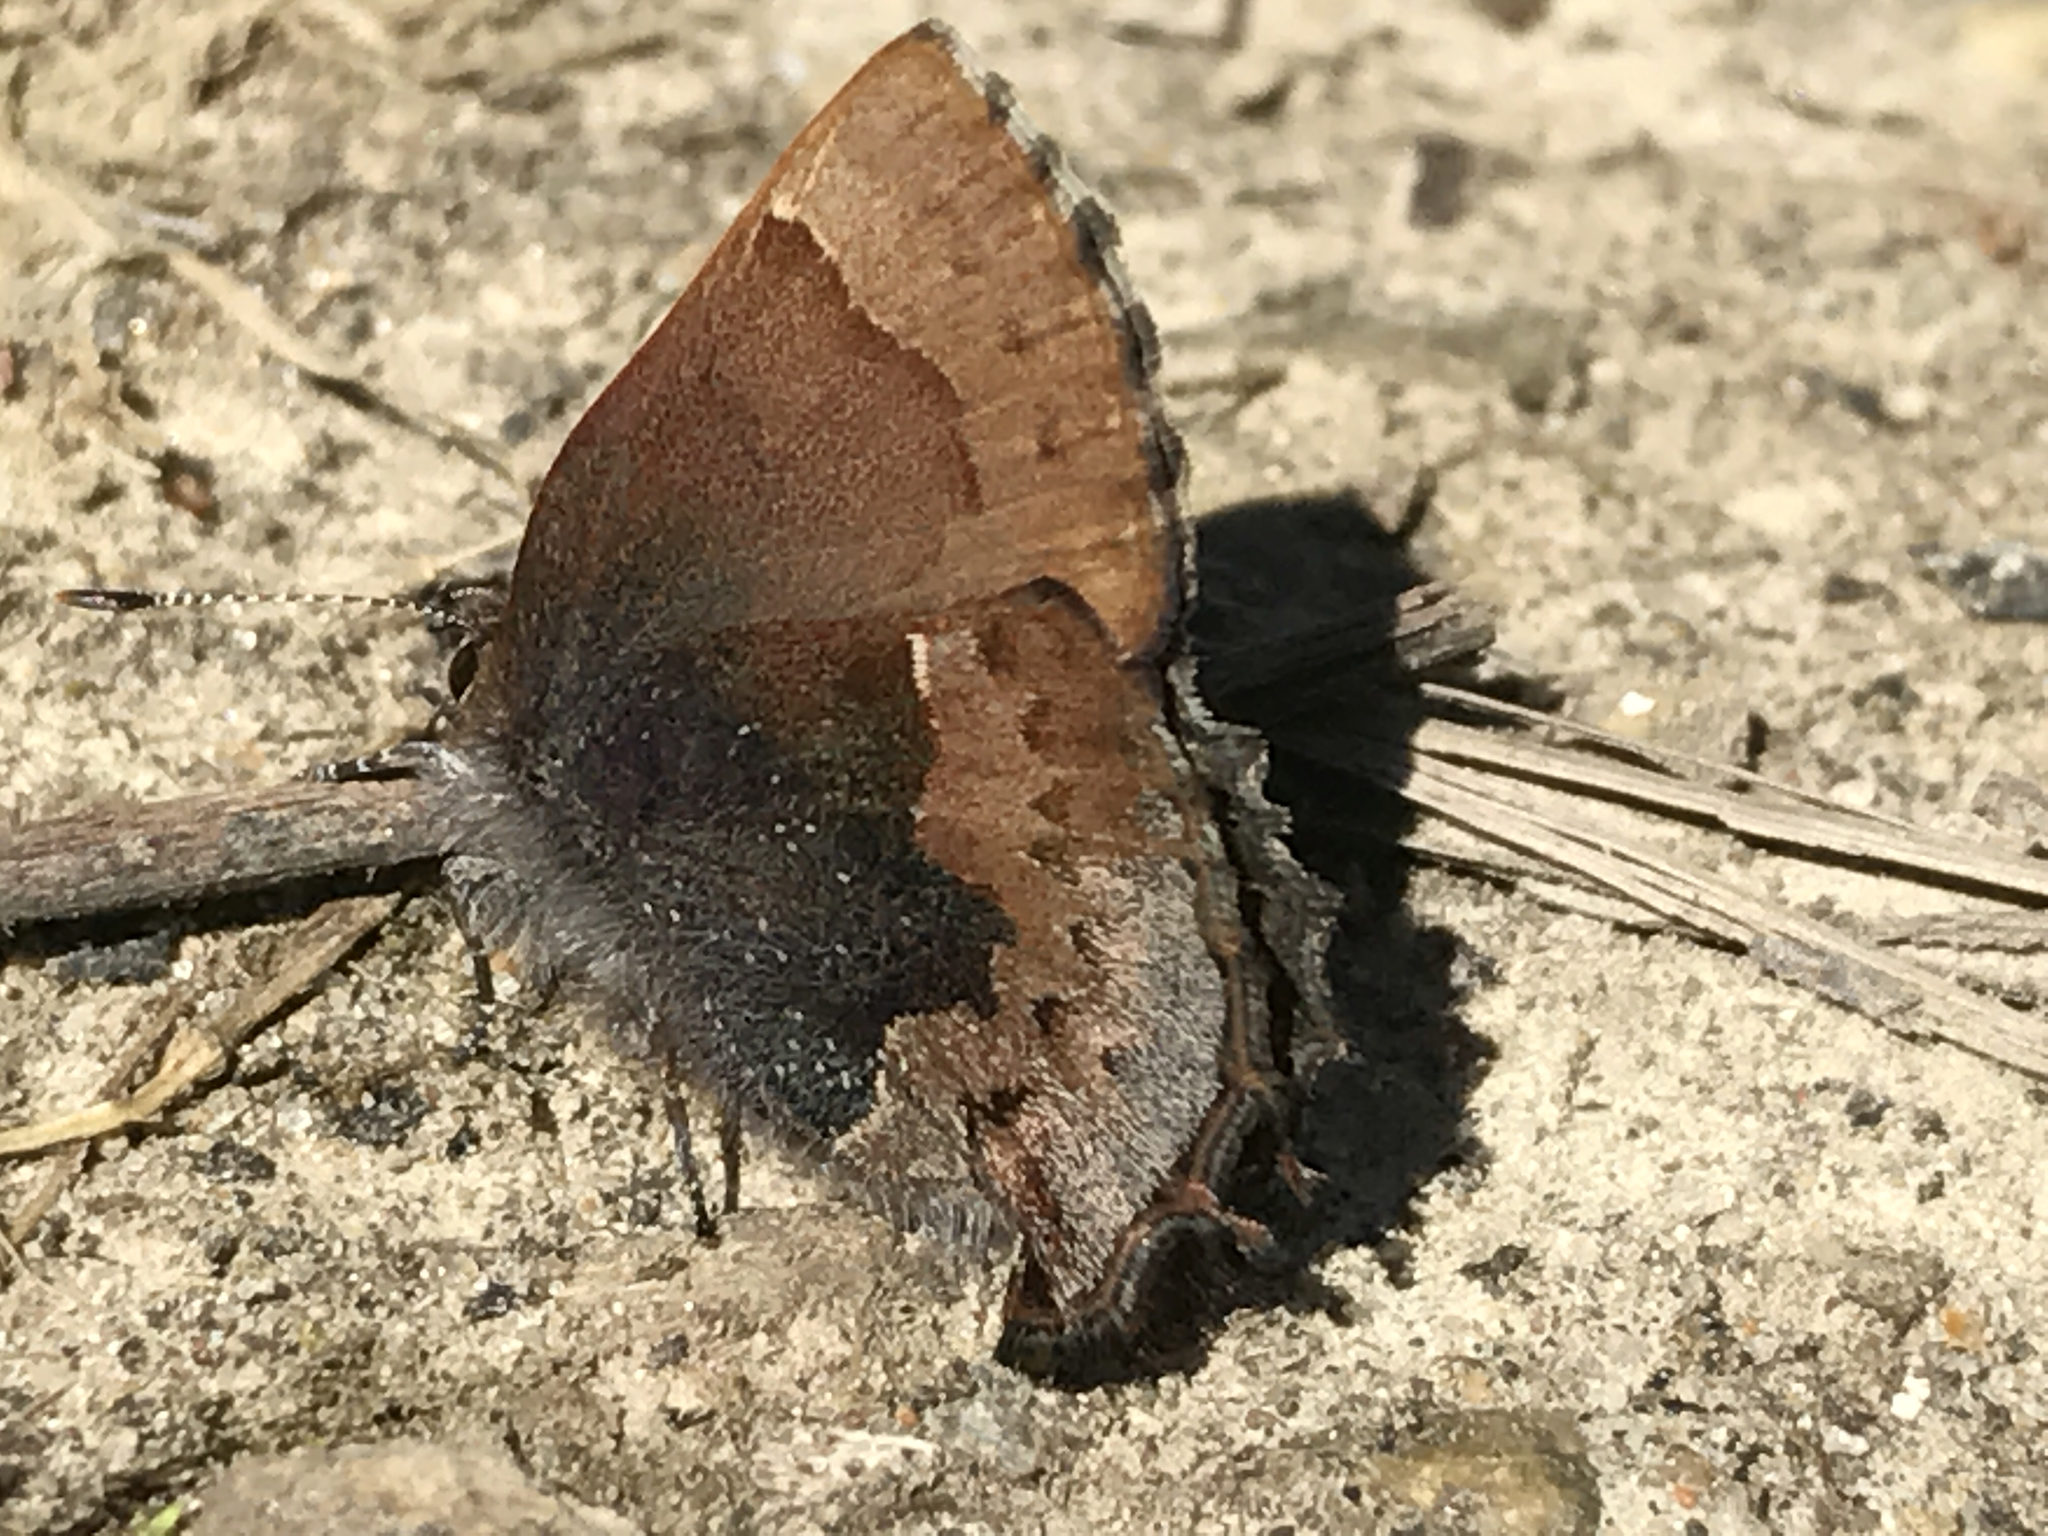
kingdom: Animalia
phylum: Arthropoda
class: Insecta
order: Lepidoptera
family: Lycaenidae
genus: Incisalia
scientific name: Incisalia henrici
